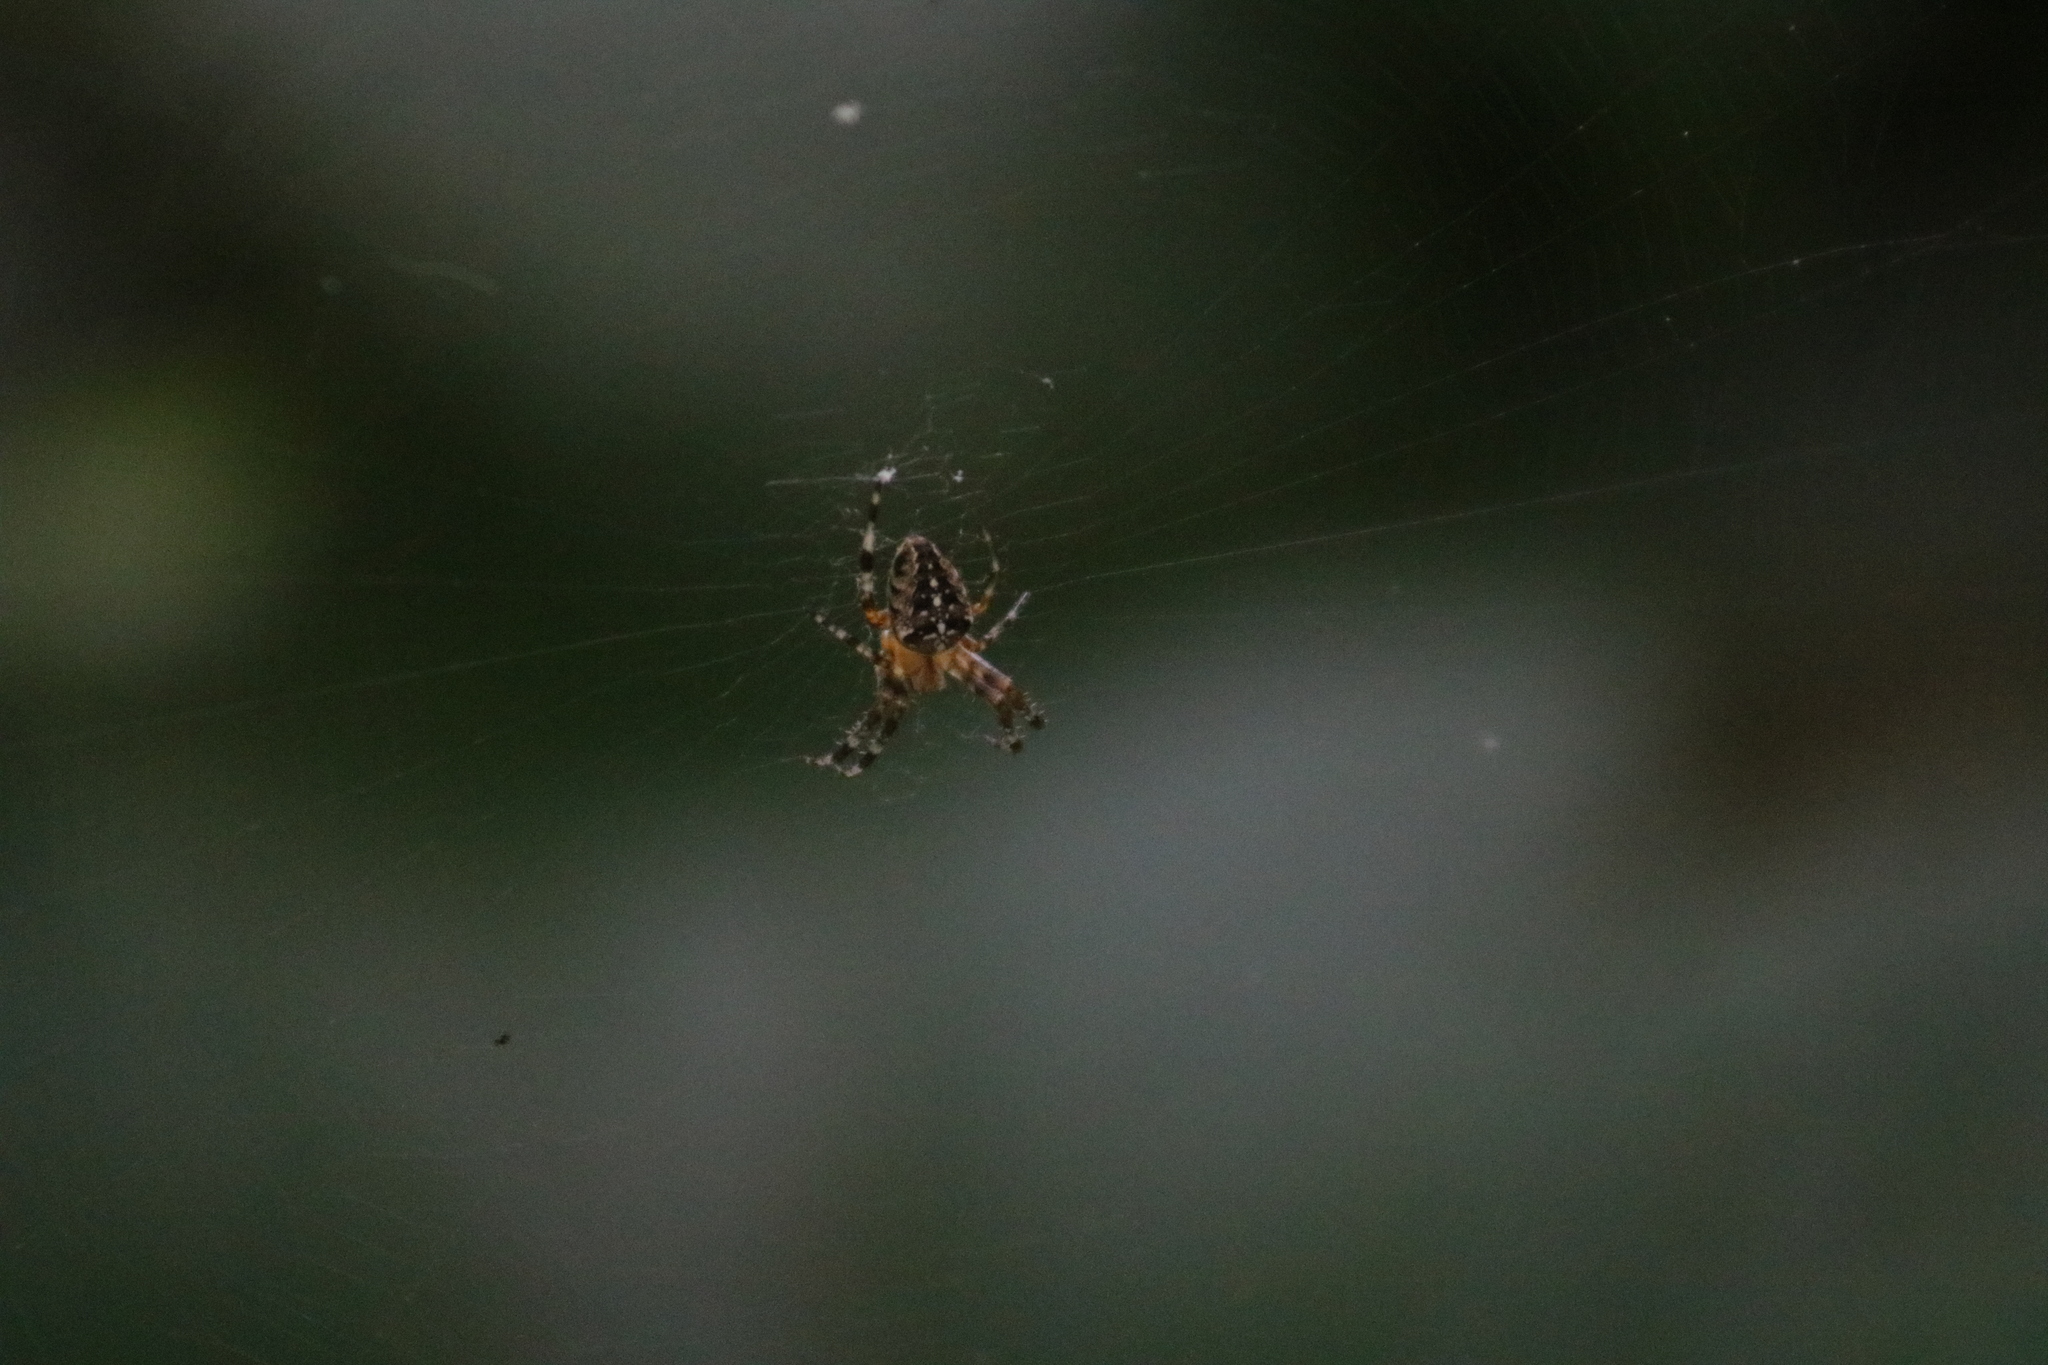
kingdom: Animalia
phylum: Arthropoda
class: Arachnida
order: Araneae
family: Araneidae
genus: Araneus
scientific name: Araneus diadematus
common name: Cross orbweaver
